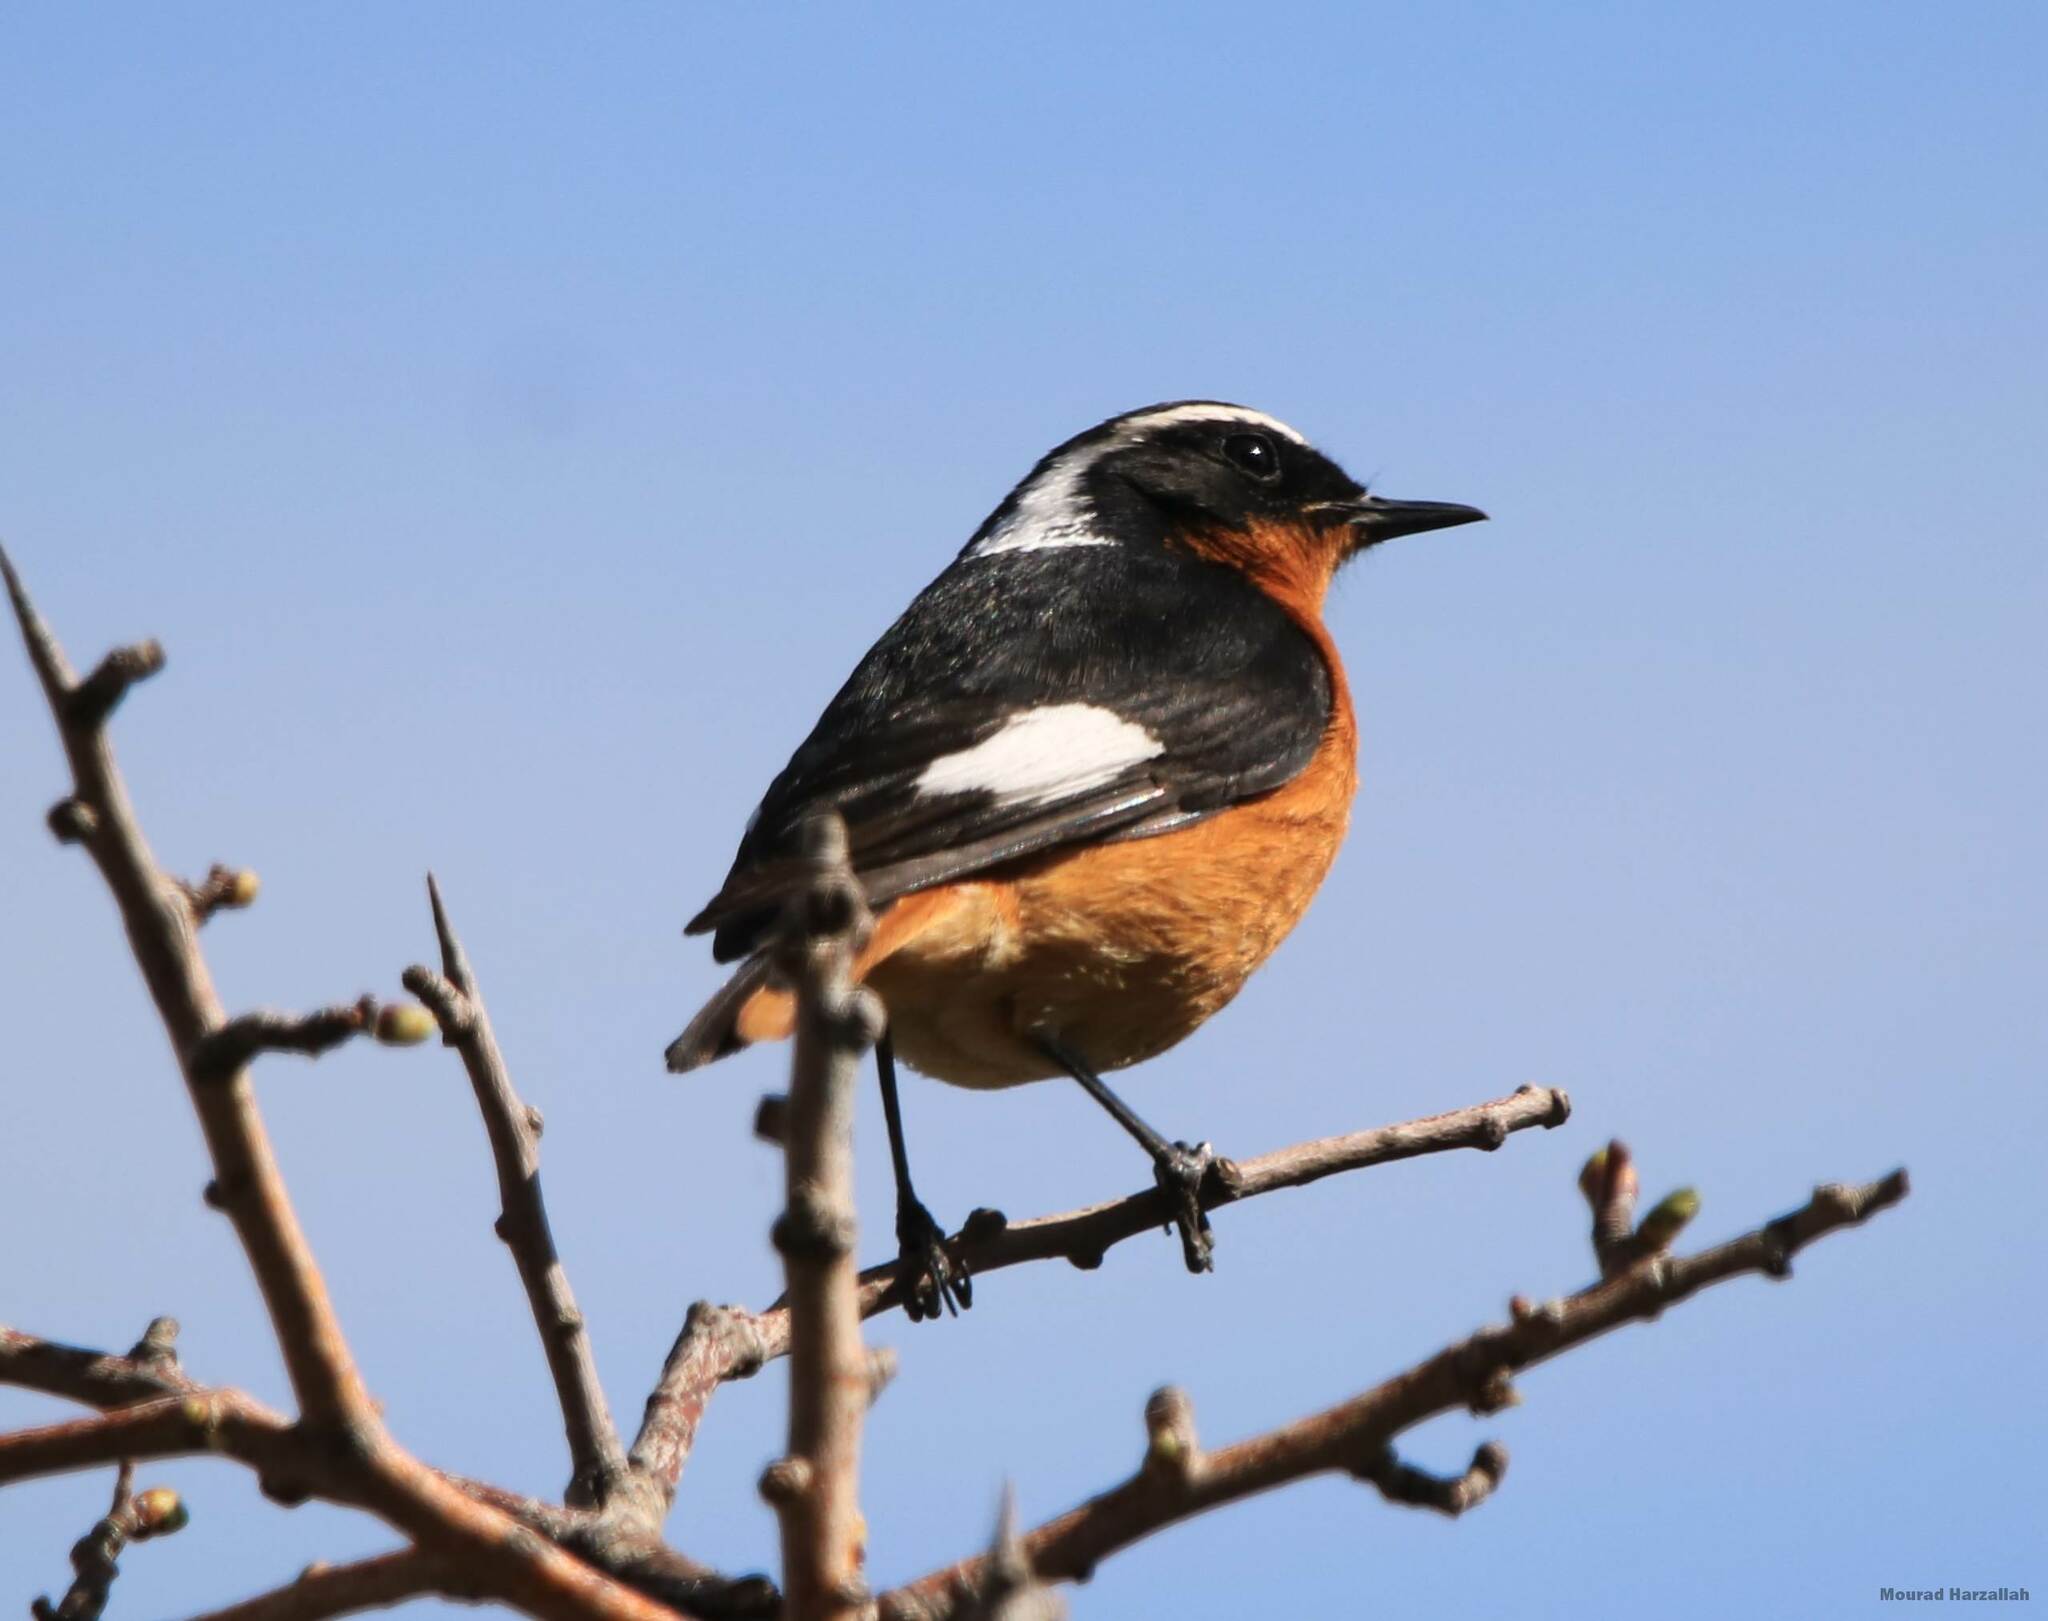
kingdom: Animalia
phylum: Chordata
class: Aves
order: Passeriformes
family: Muscicapidae
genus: Phoenicurus
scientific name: Phoenicurus moussieri
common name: Moussier's redstart
